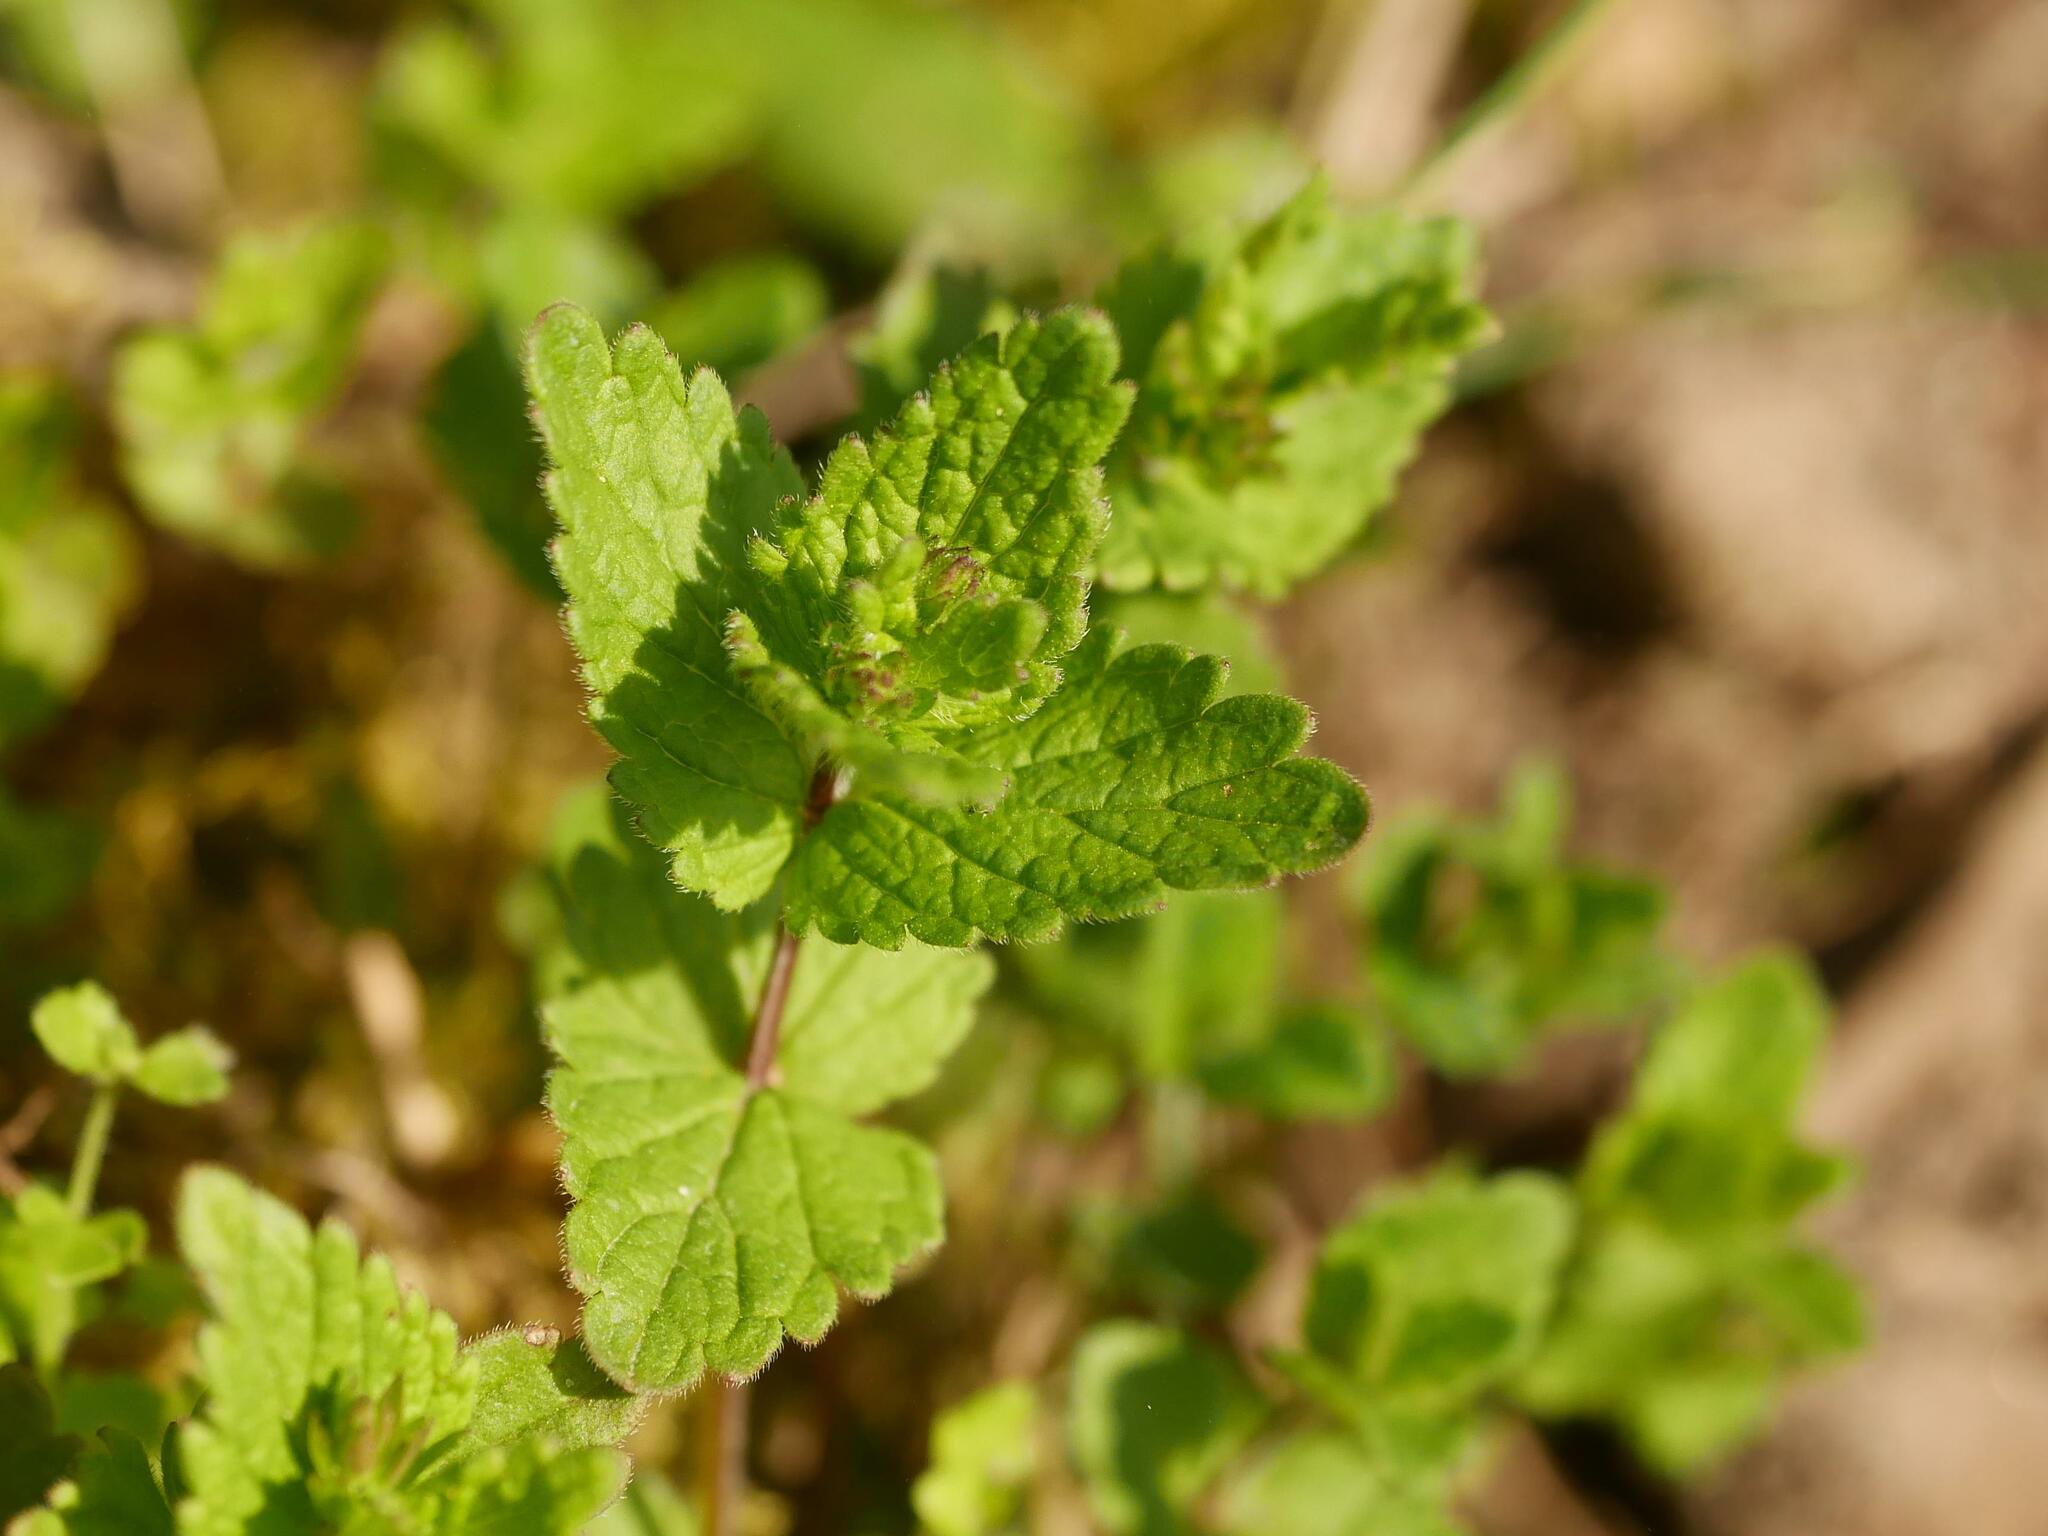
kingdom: Plantae
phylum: Tracheophyta
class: Magnoliopsida
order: Lamiales
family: Plantaginaceae
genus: Veronica
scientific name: Veronica chamaedrys
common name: Germander speedwell
